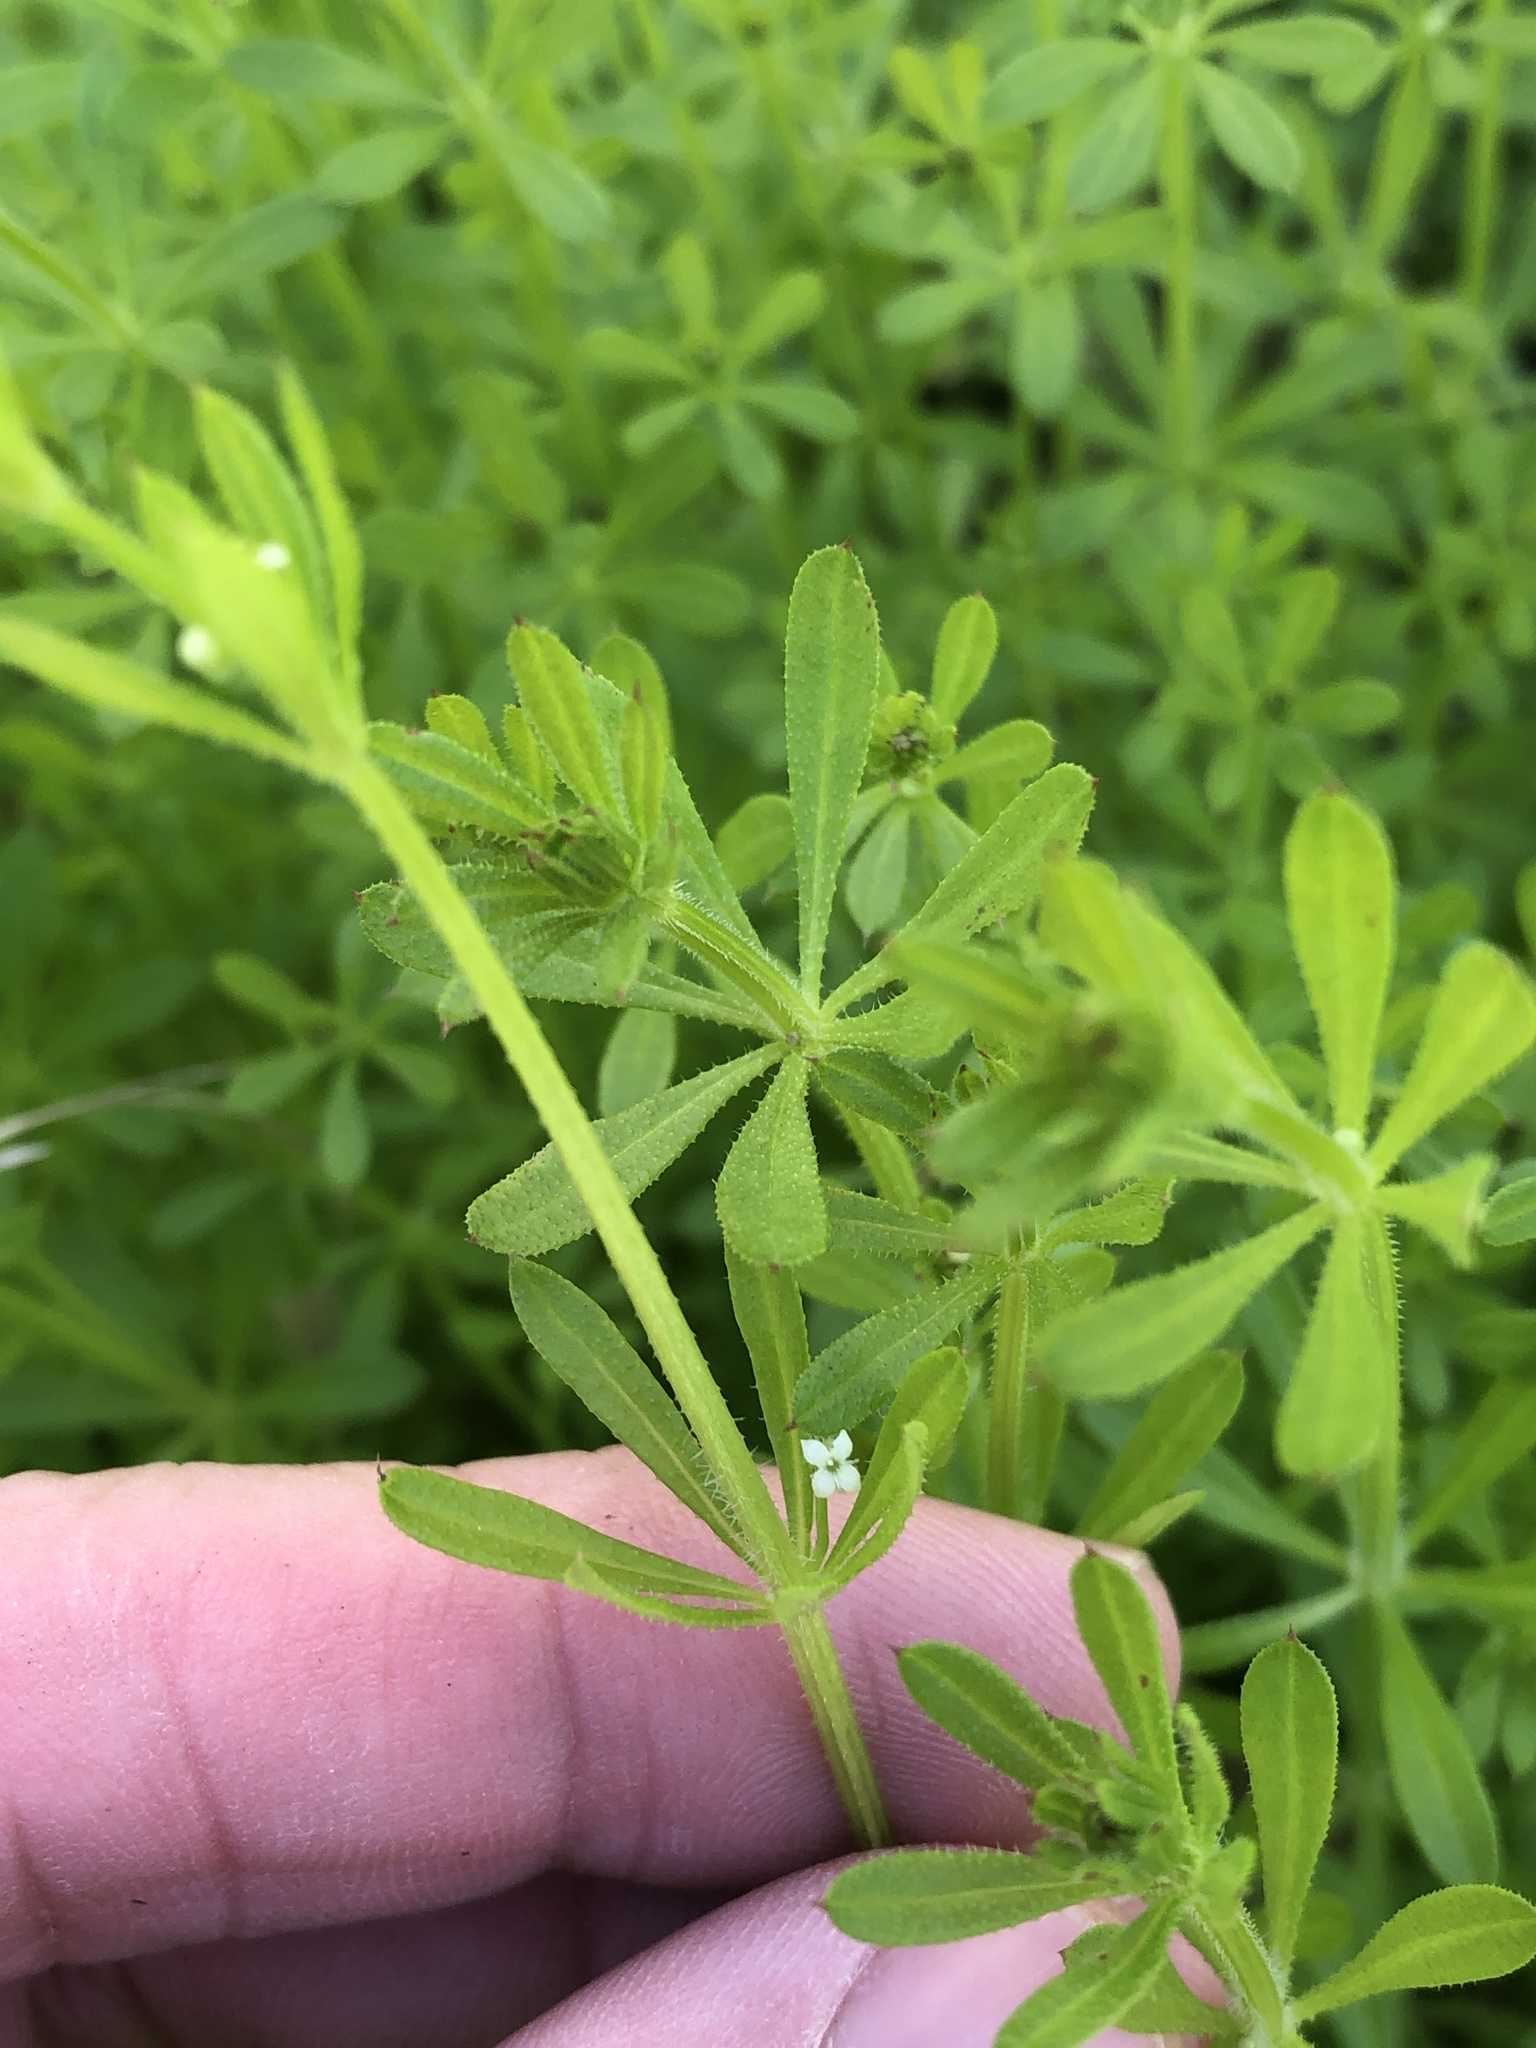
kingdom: Plantae
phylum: Tracheophyta
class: Magnoliopsida
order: Gentianales
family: Rubiaceae
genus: Galium
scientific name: Galium aparine
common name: Cleavers
